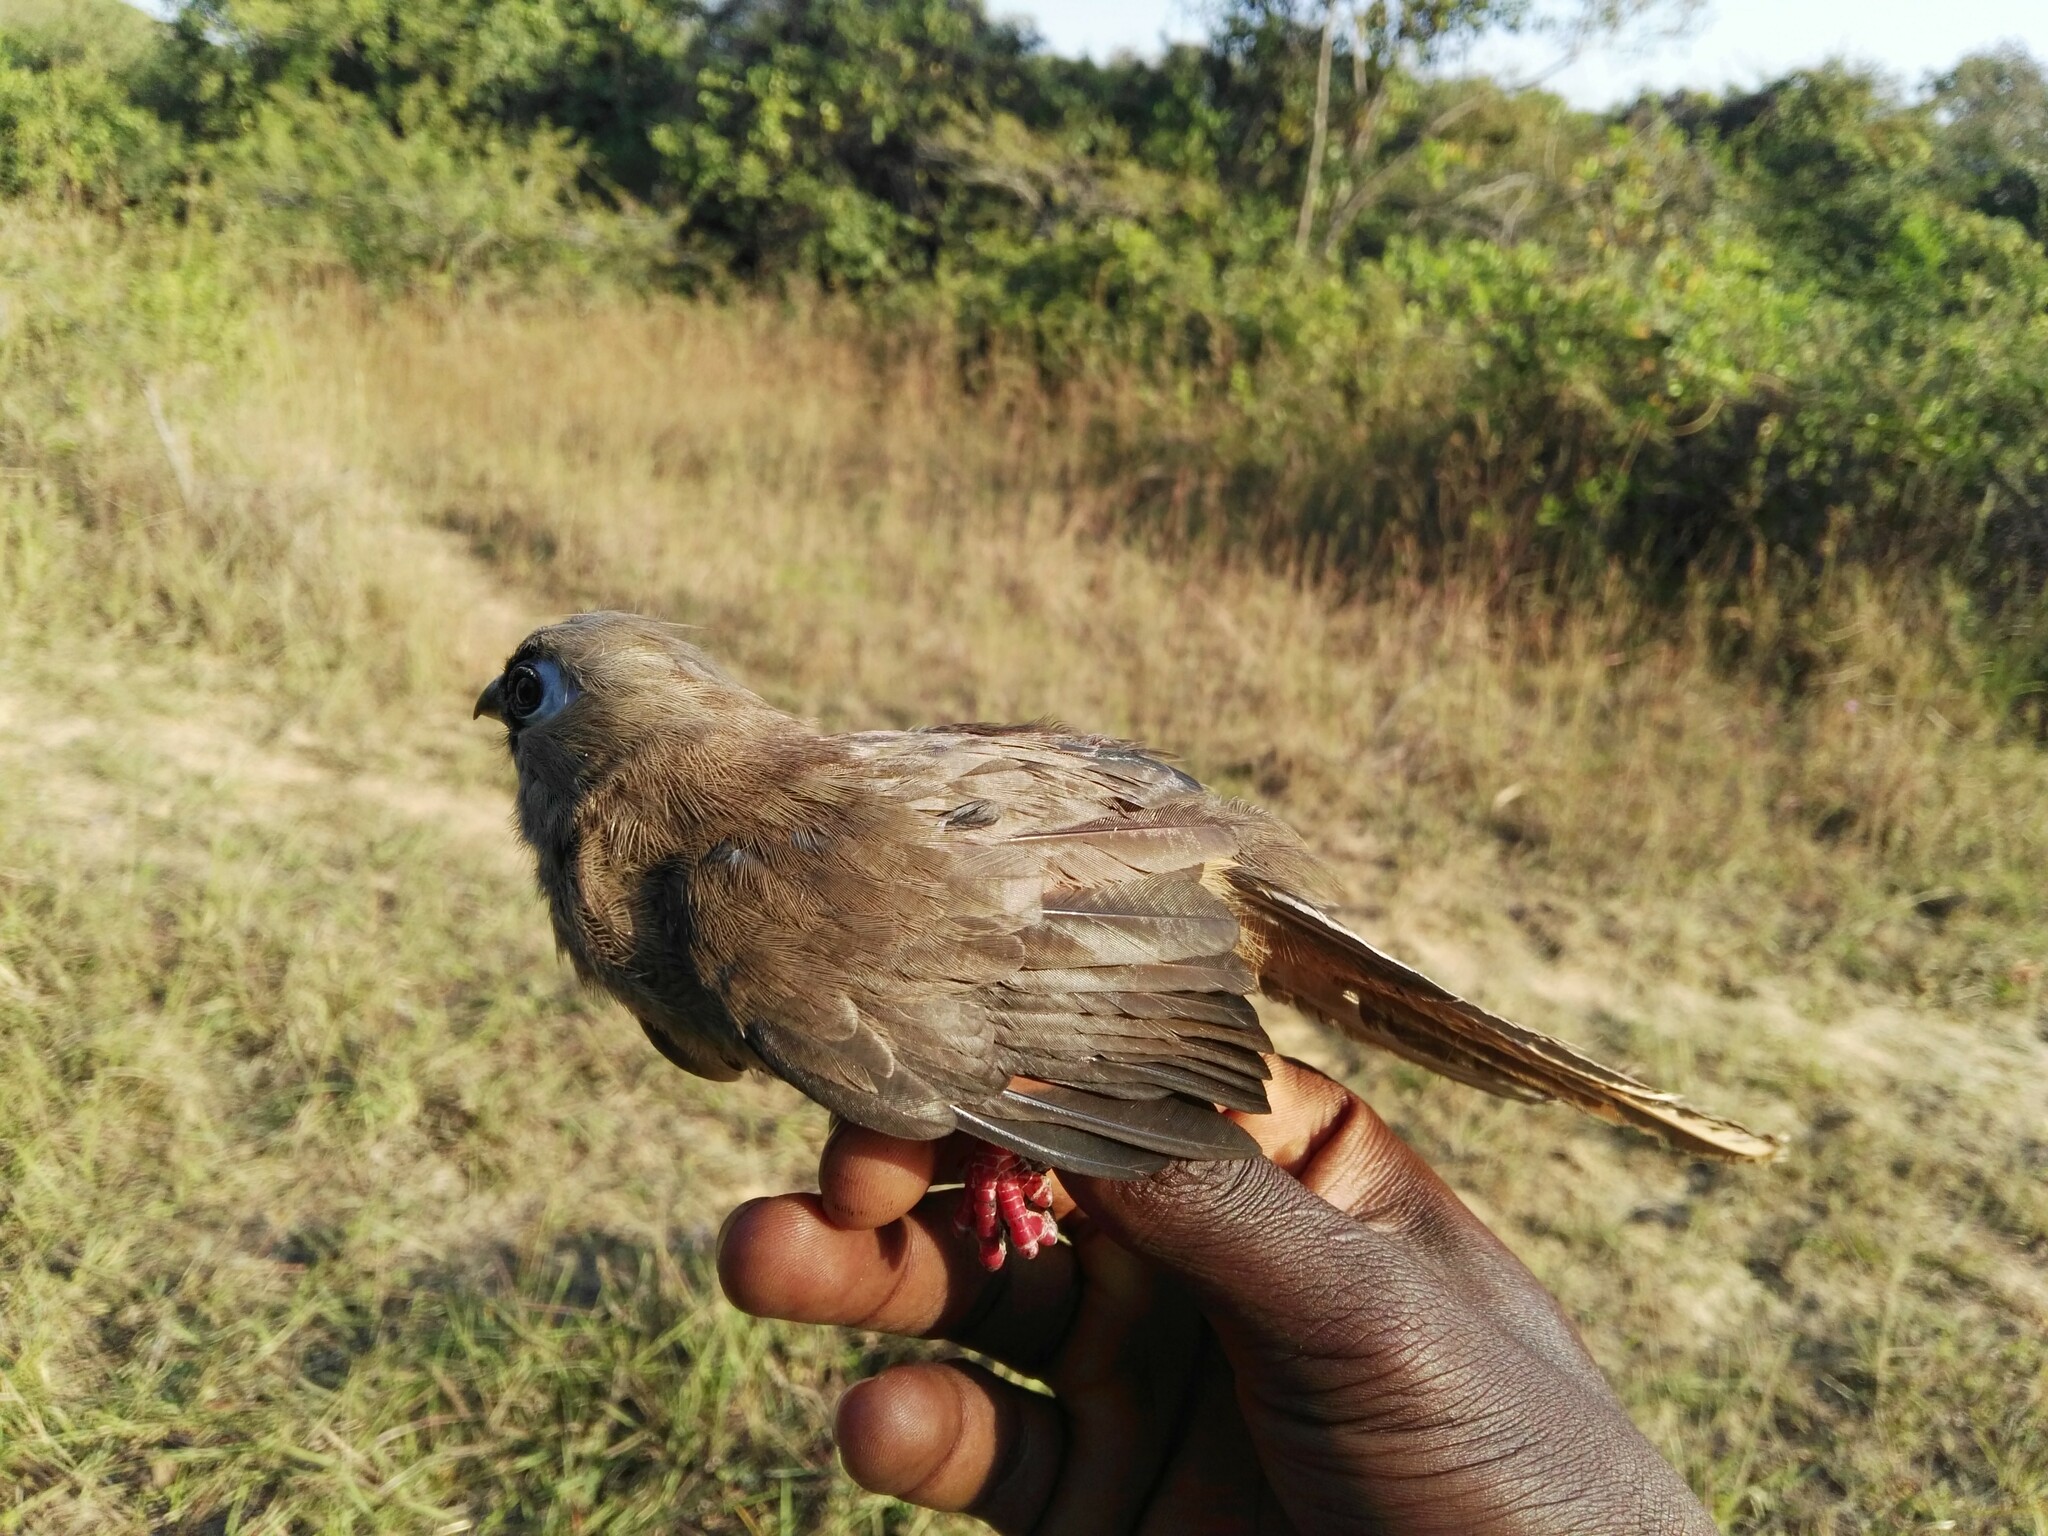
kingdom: Animalia
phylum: Chordata
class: Aves
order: Coliiformes
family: Coliidae
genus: Colius
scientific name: Colius striatus
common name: Speckled mousebird
